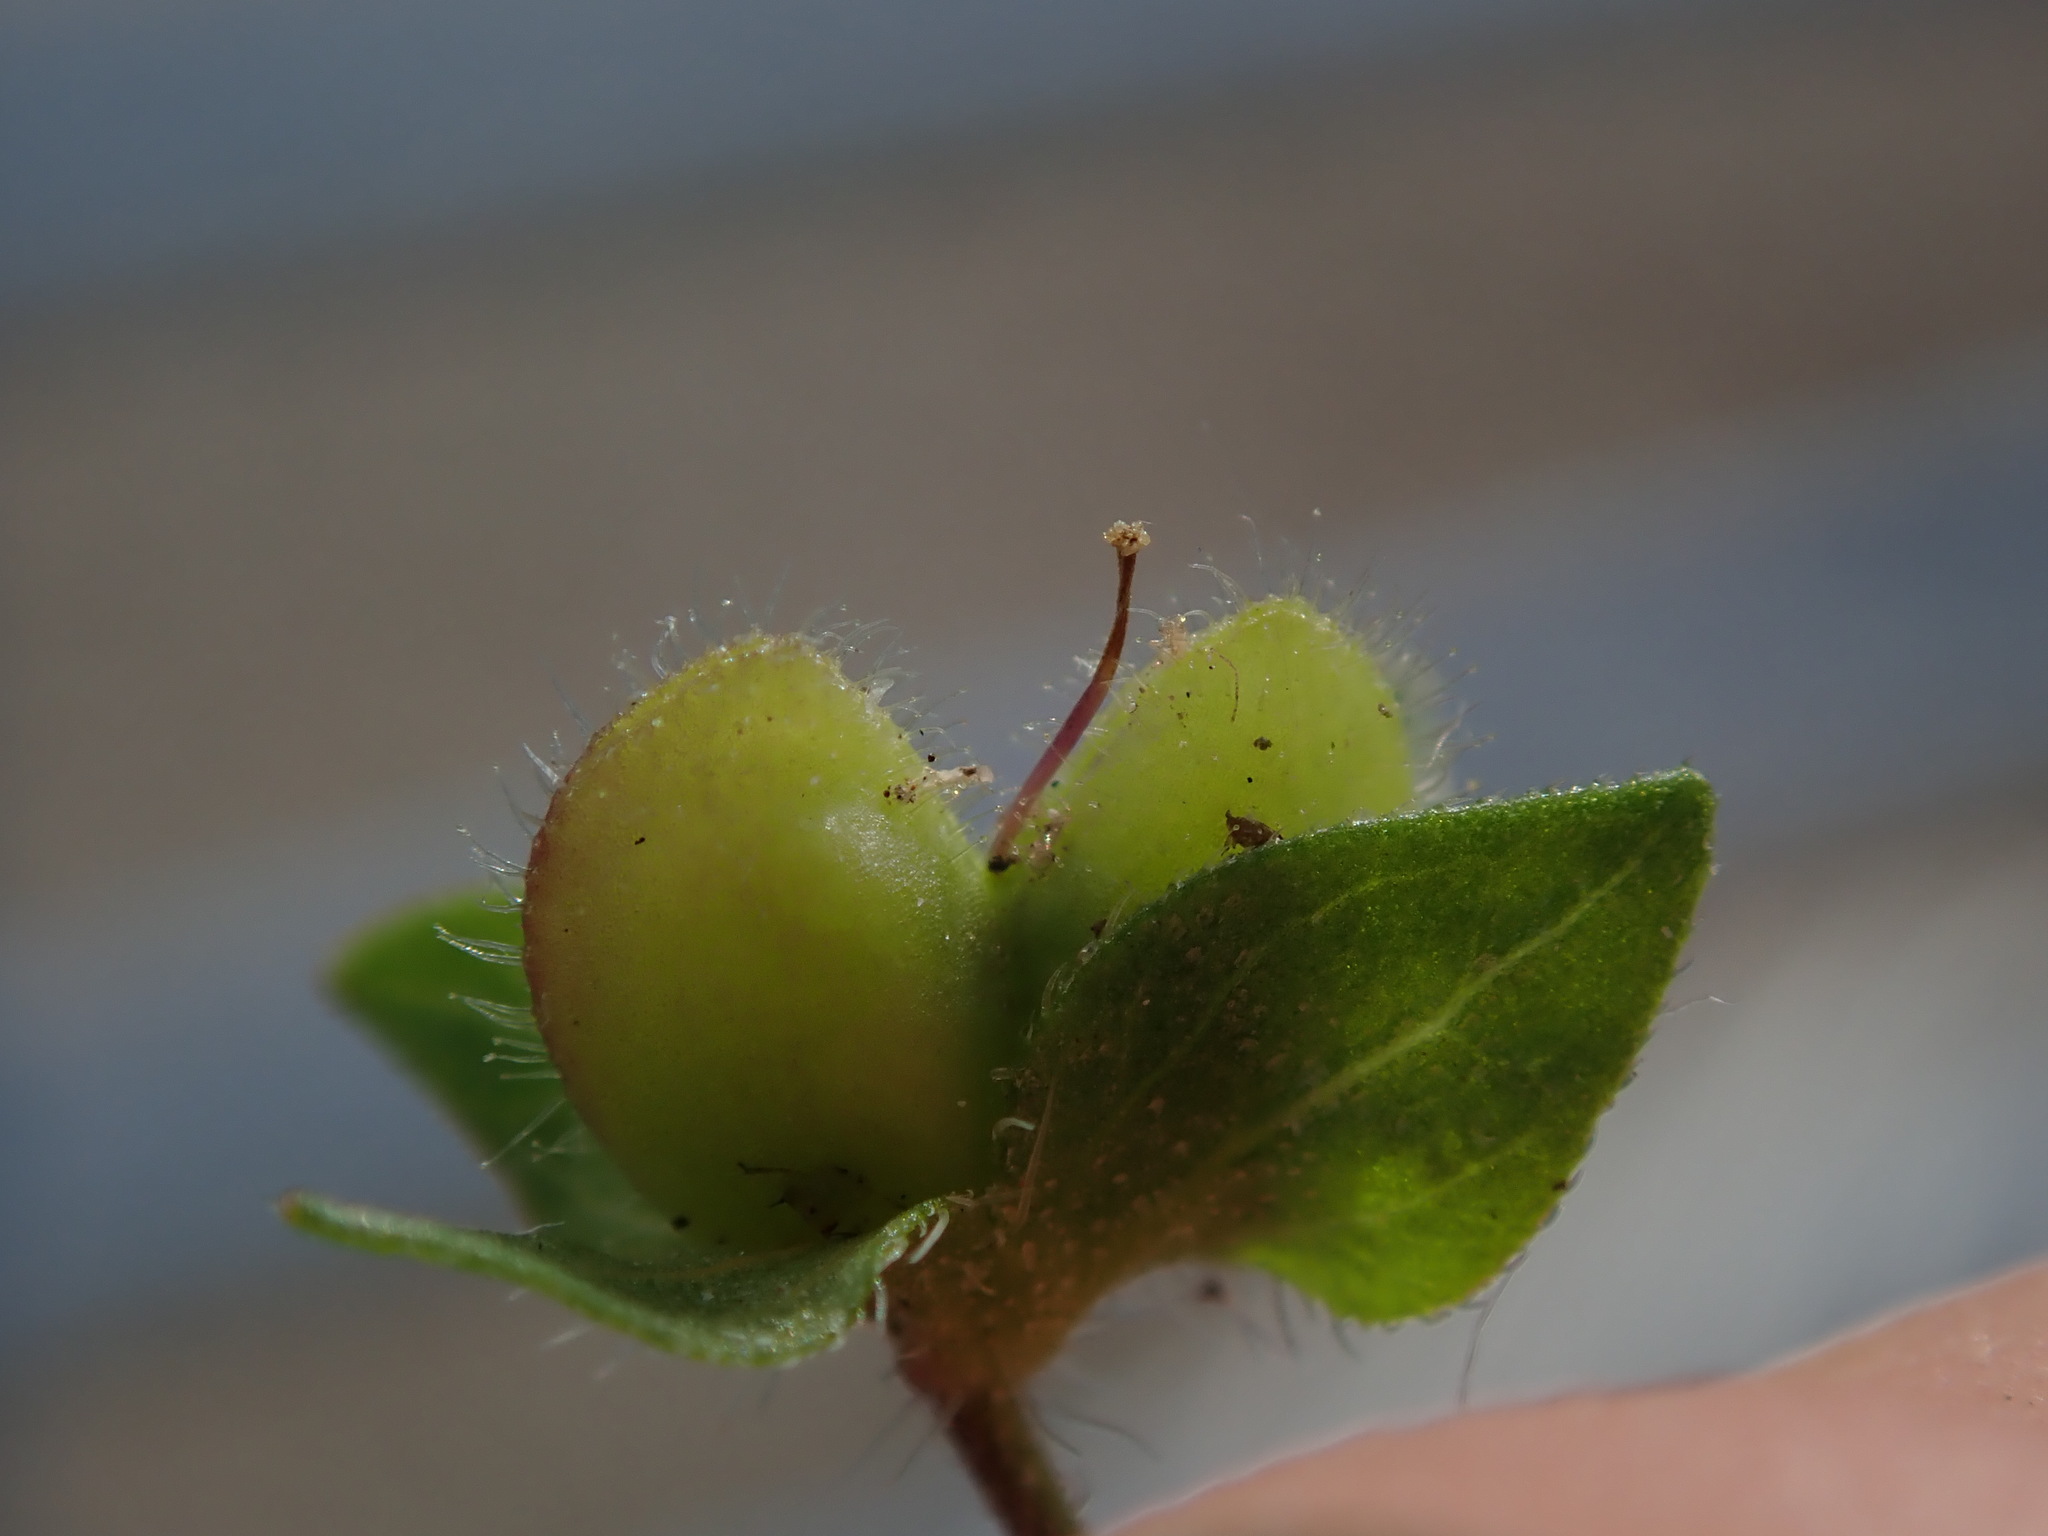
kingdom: Plantae
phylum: Tracheophyta
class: Magnoliopsida
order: Lamiales
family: Plantaginaceae
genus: Veronica
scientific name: Veronica persica
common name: Common field-speedwell
